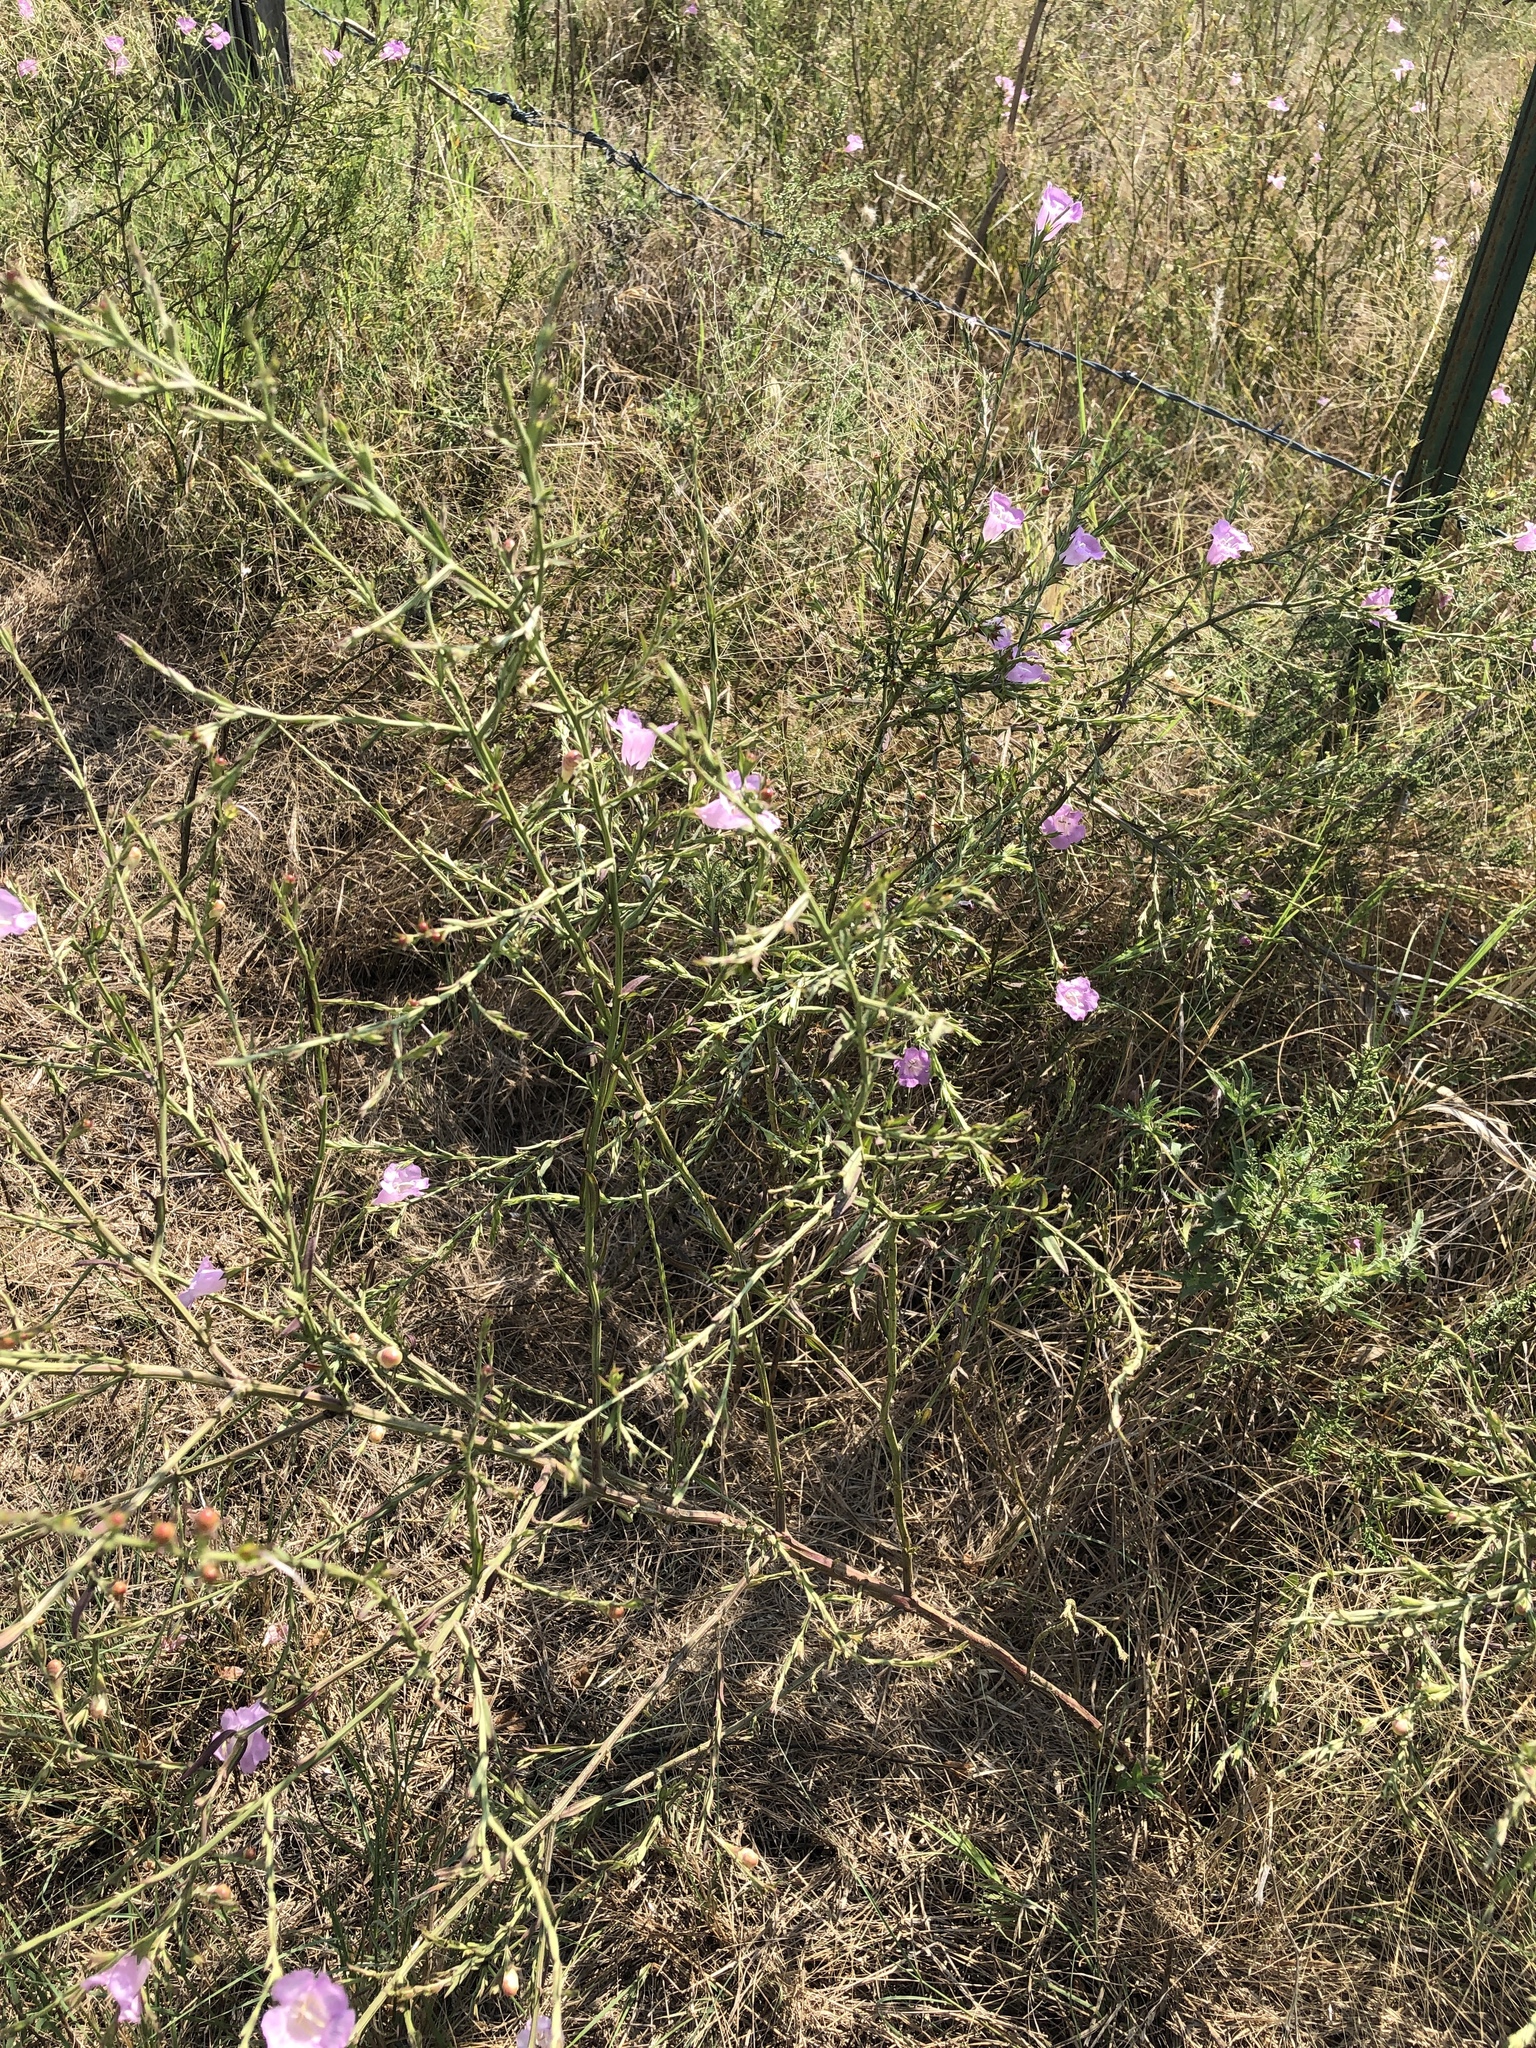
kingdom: Plantae
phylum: Tracheophyta
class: Magnoliopsida
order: Lamiales
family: Orobanchaceae
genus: Agalinis
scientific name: Agalinis heterophylla
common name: Prairie agalinis
